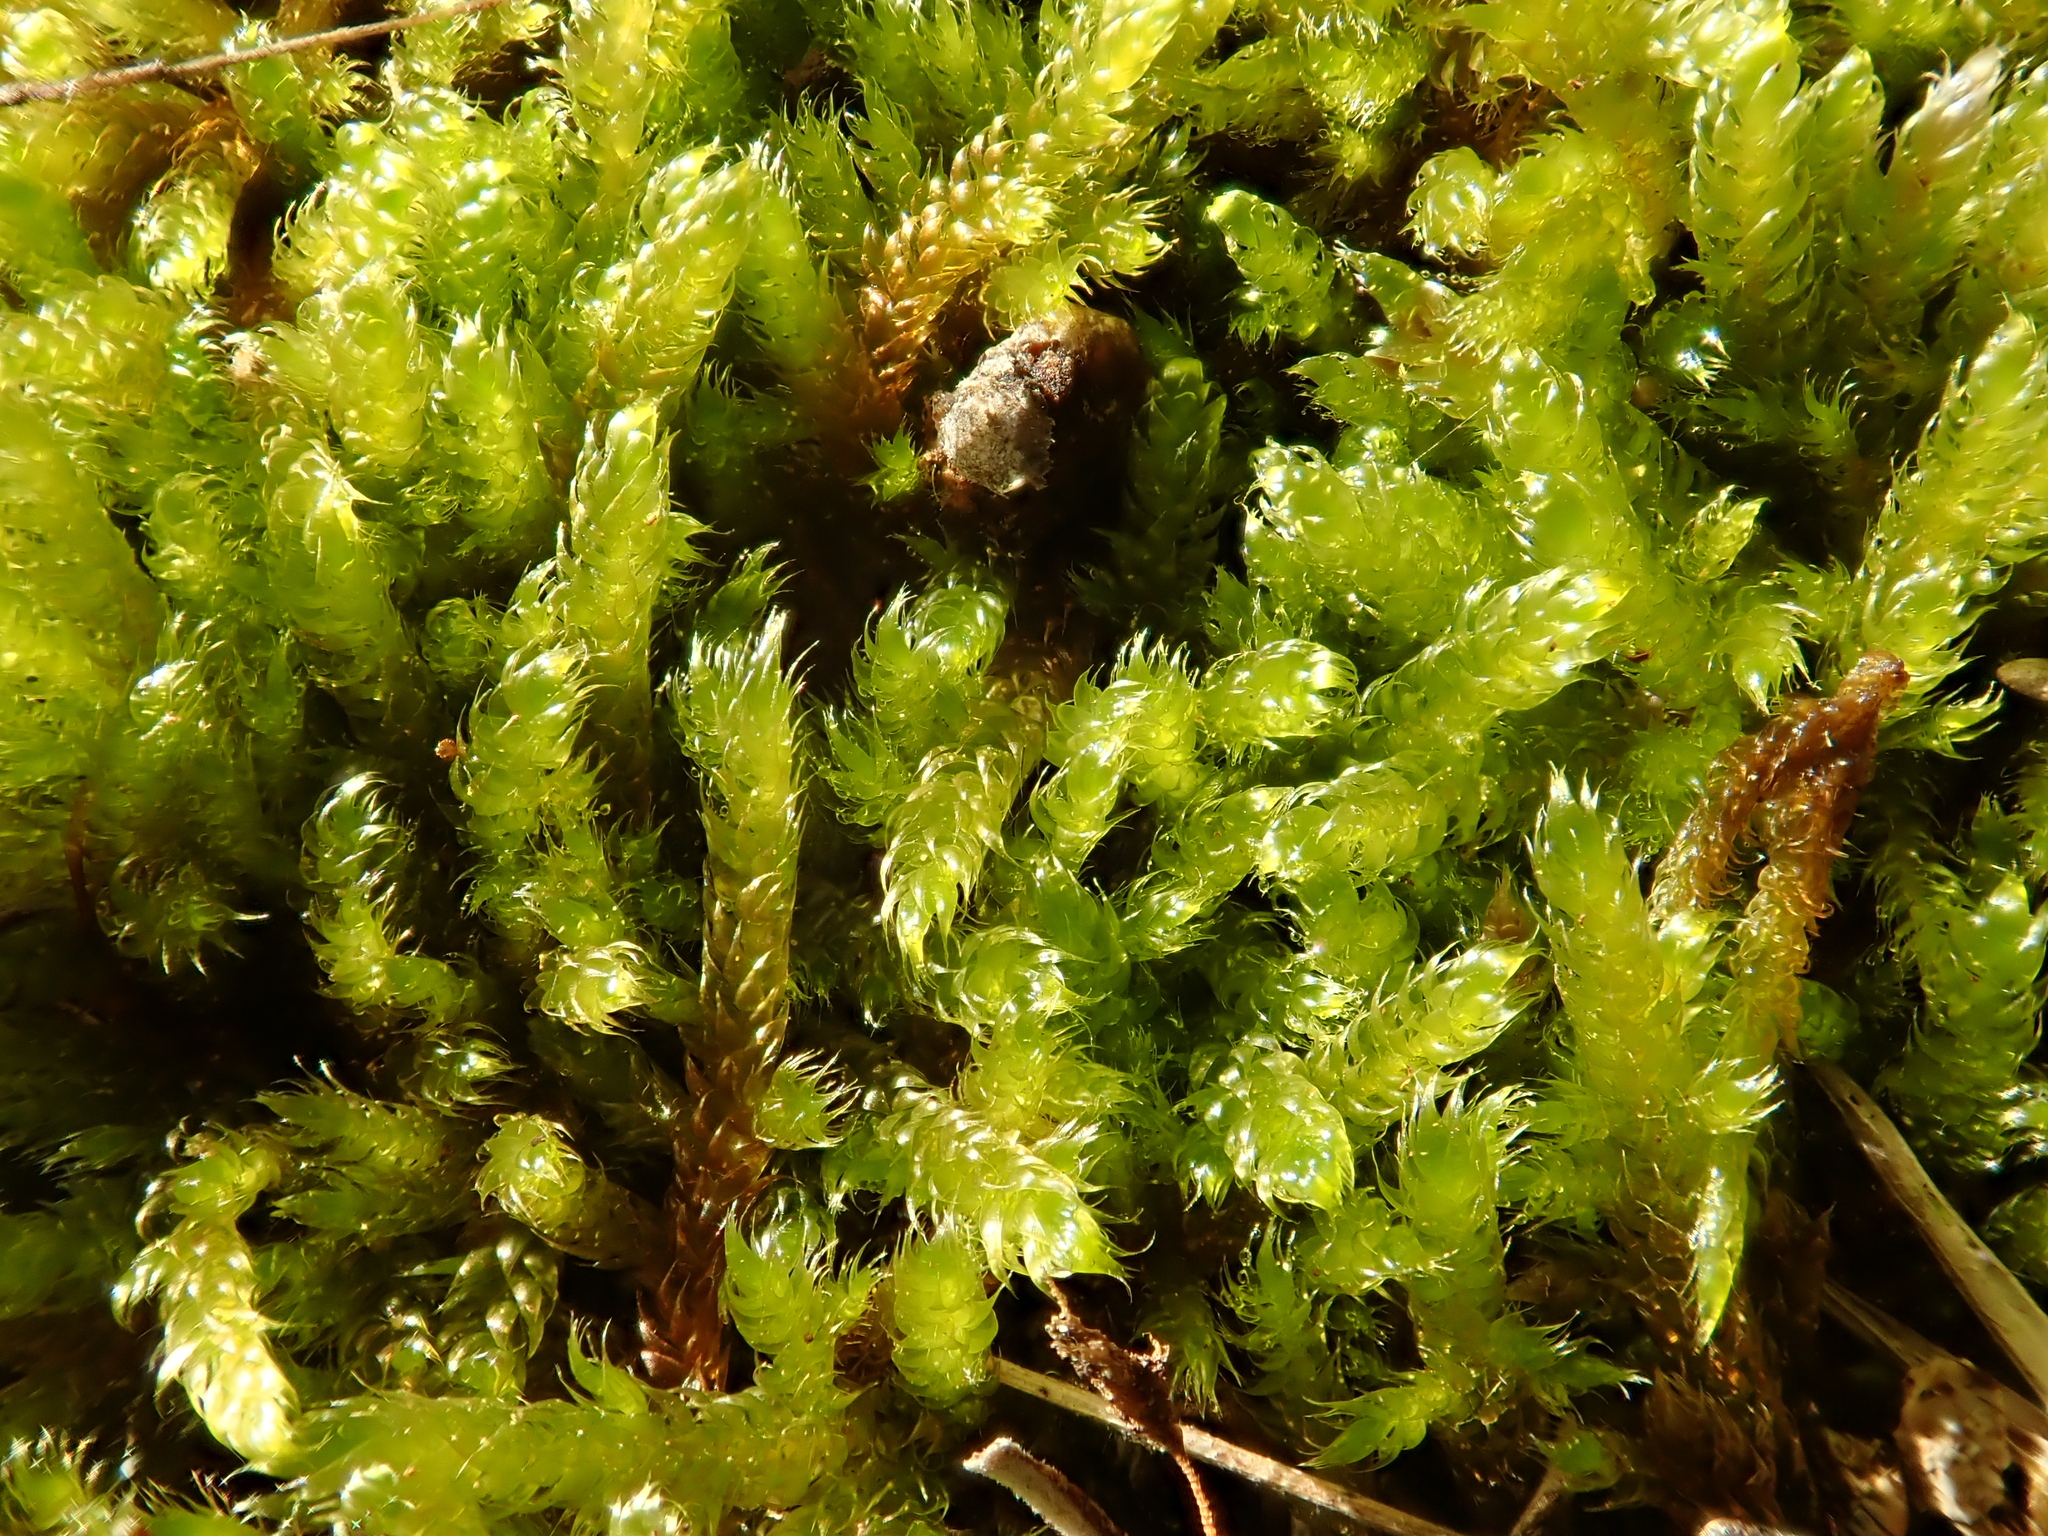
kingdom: Plantae
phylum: Bryophyta
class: Bryopsida
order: Hypnales
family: Hypnaceae
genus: Hypnum
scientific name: Hypnum cupressiforme
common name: Cypress-leaved plait-moss
